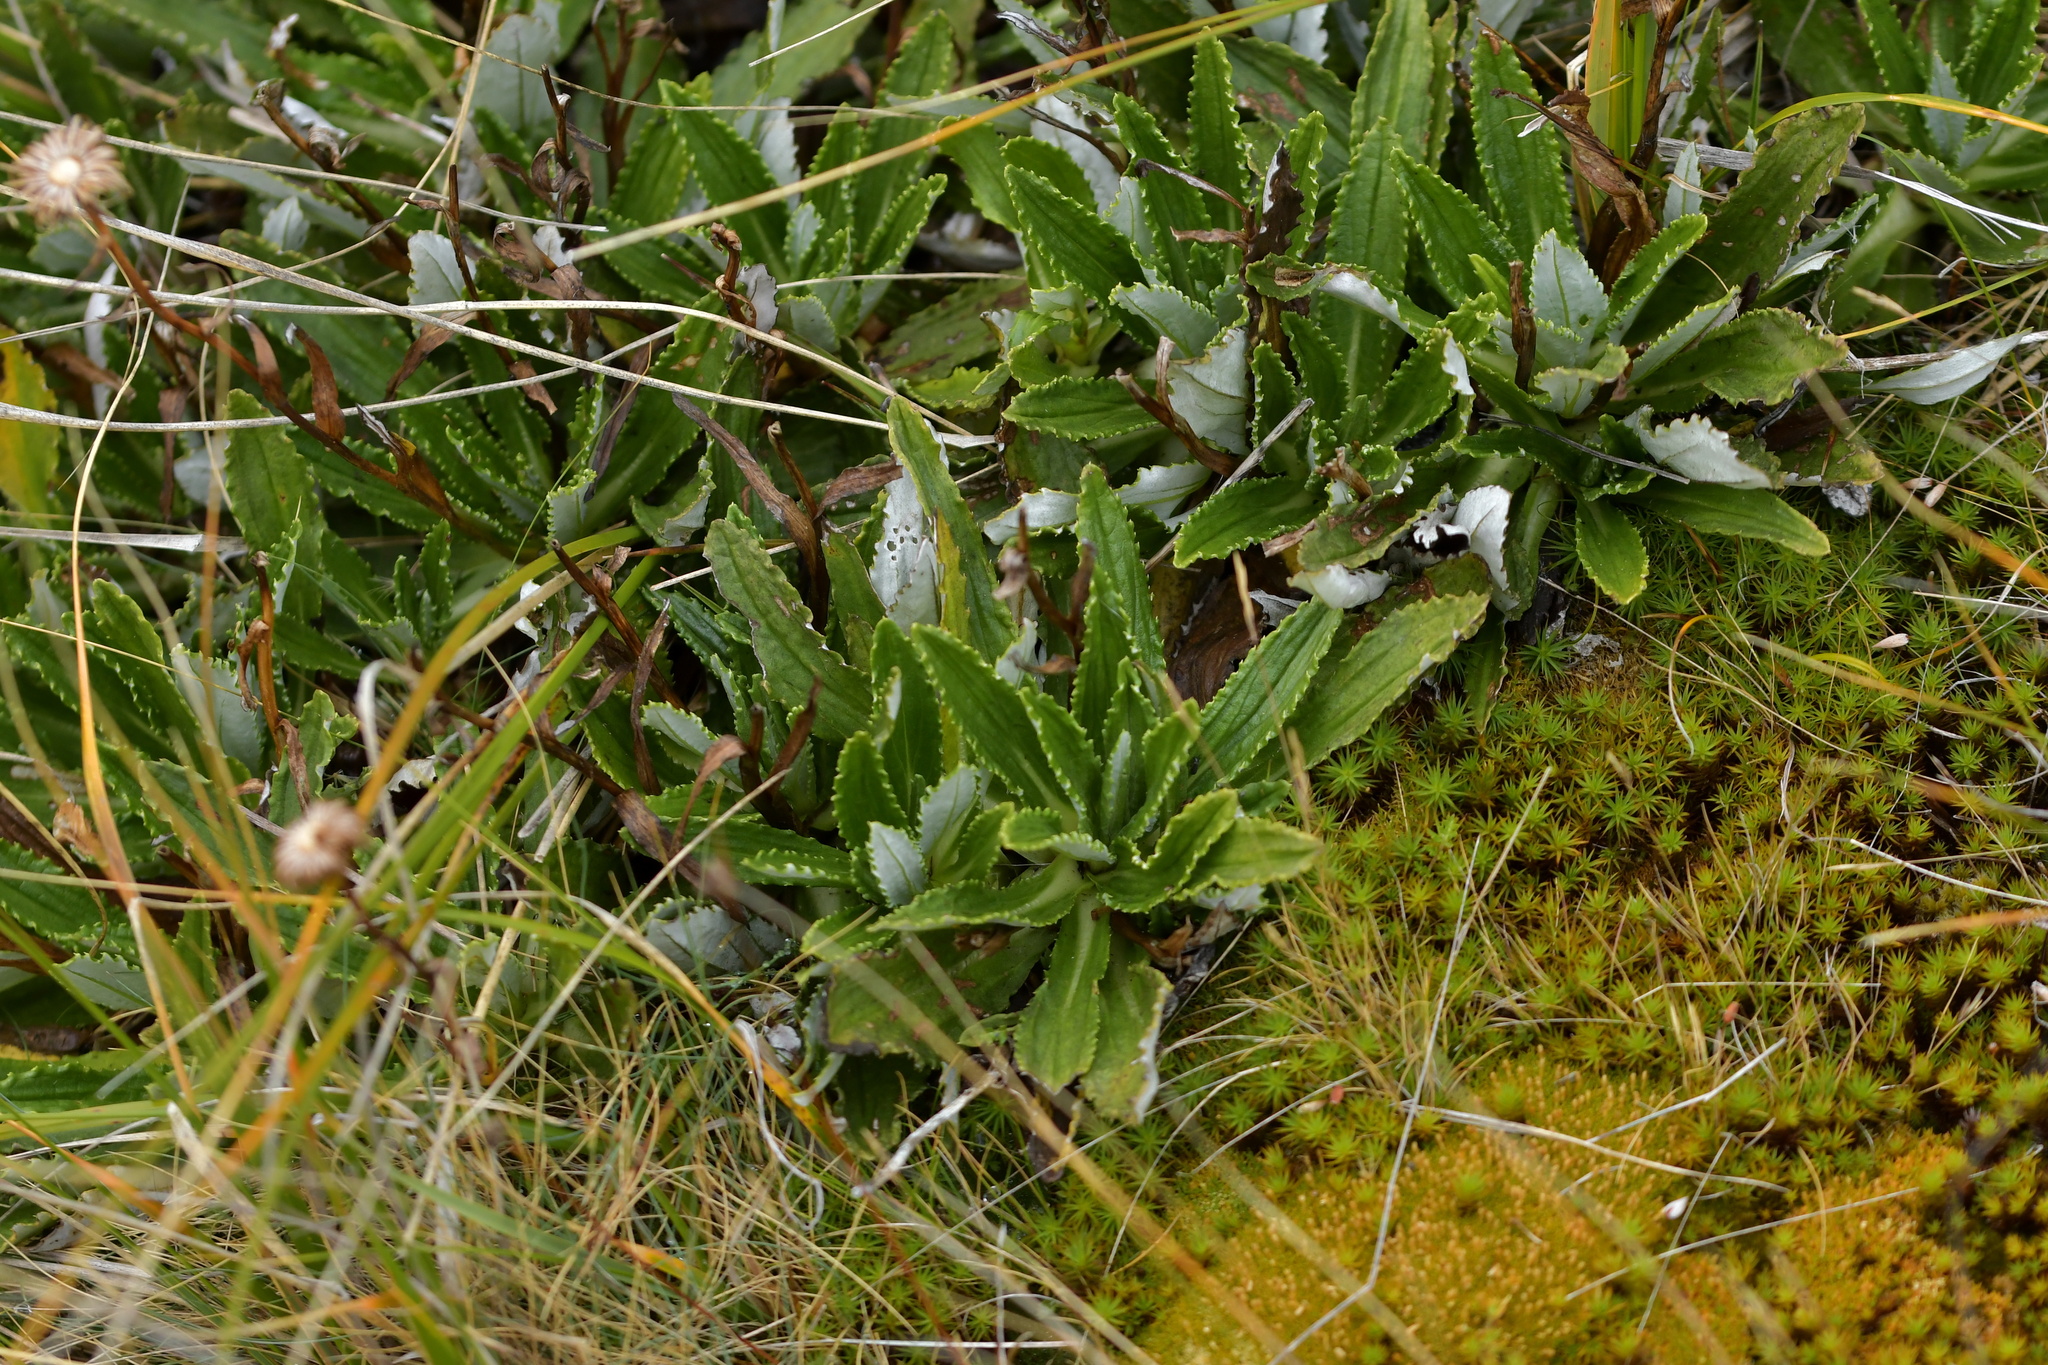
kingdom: Plantae
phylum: Tracheophyta
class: Magnoliopsida
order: Asterales
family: Asteraceae
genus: Celmisia
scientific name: Celmisia densiflora
